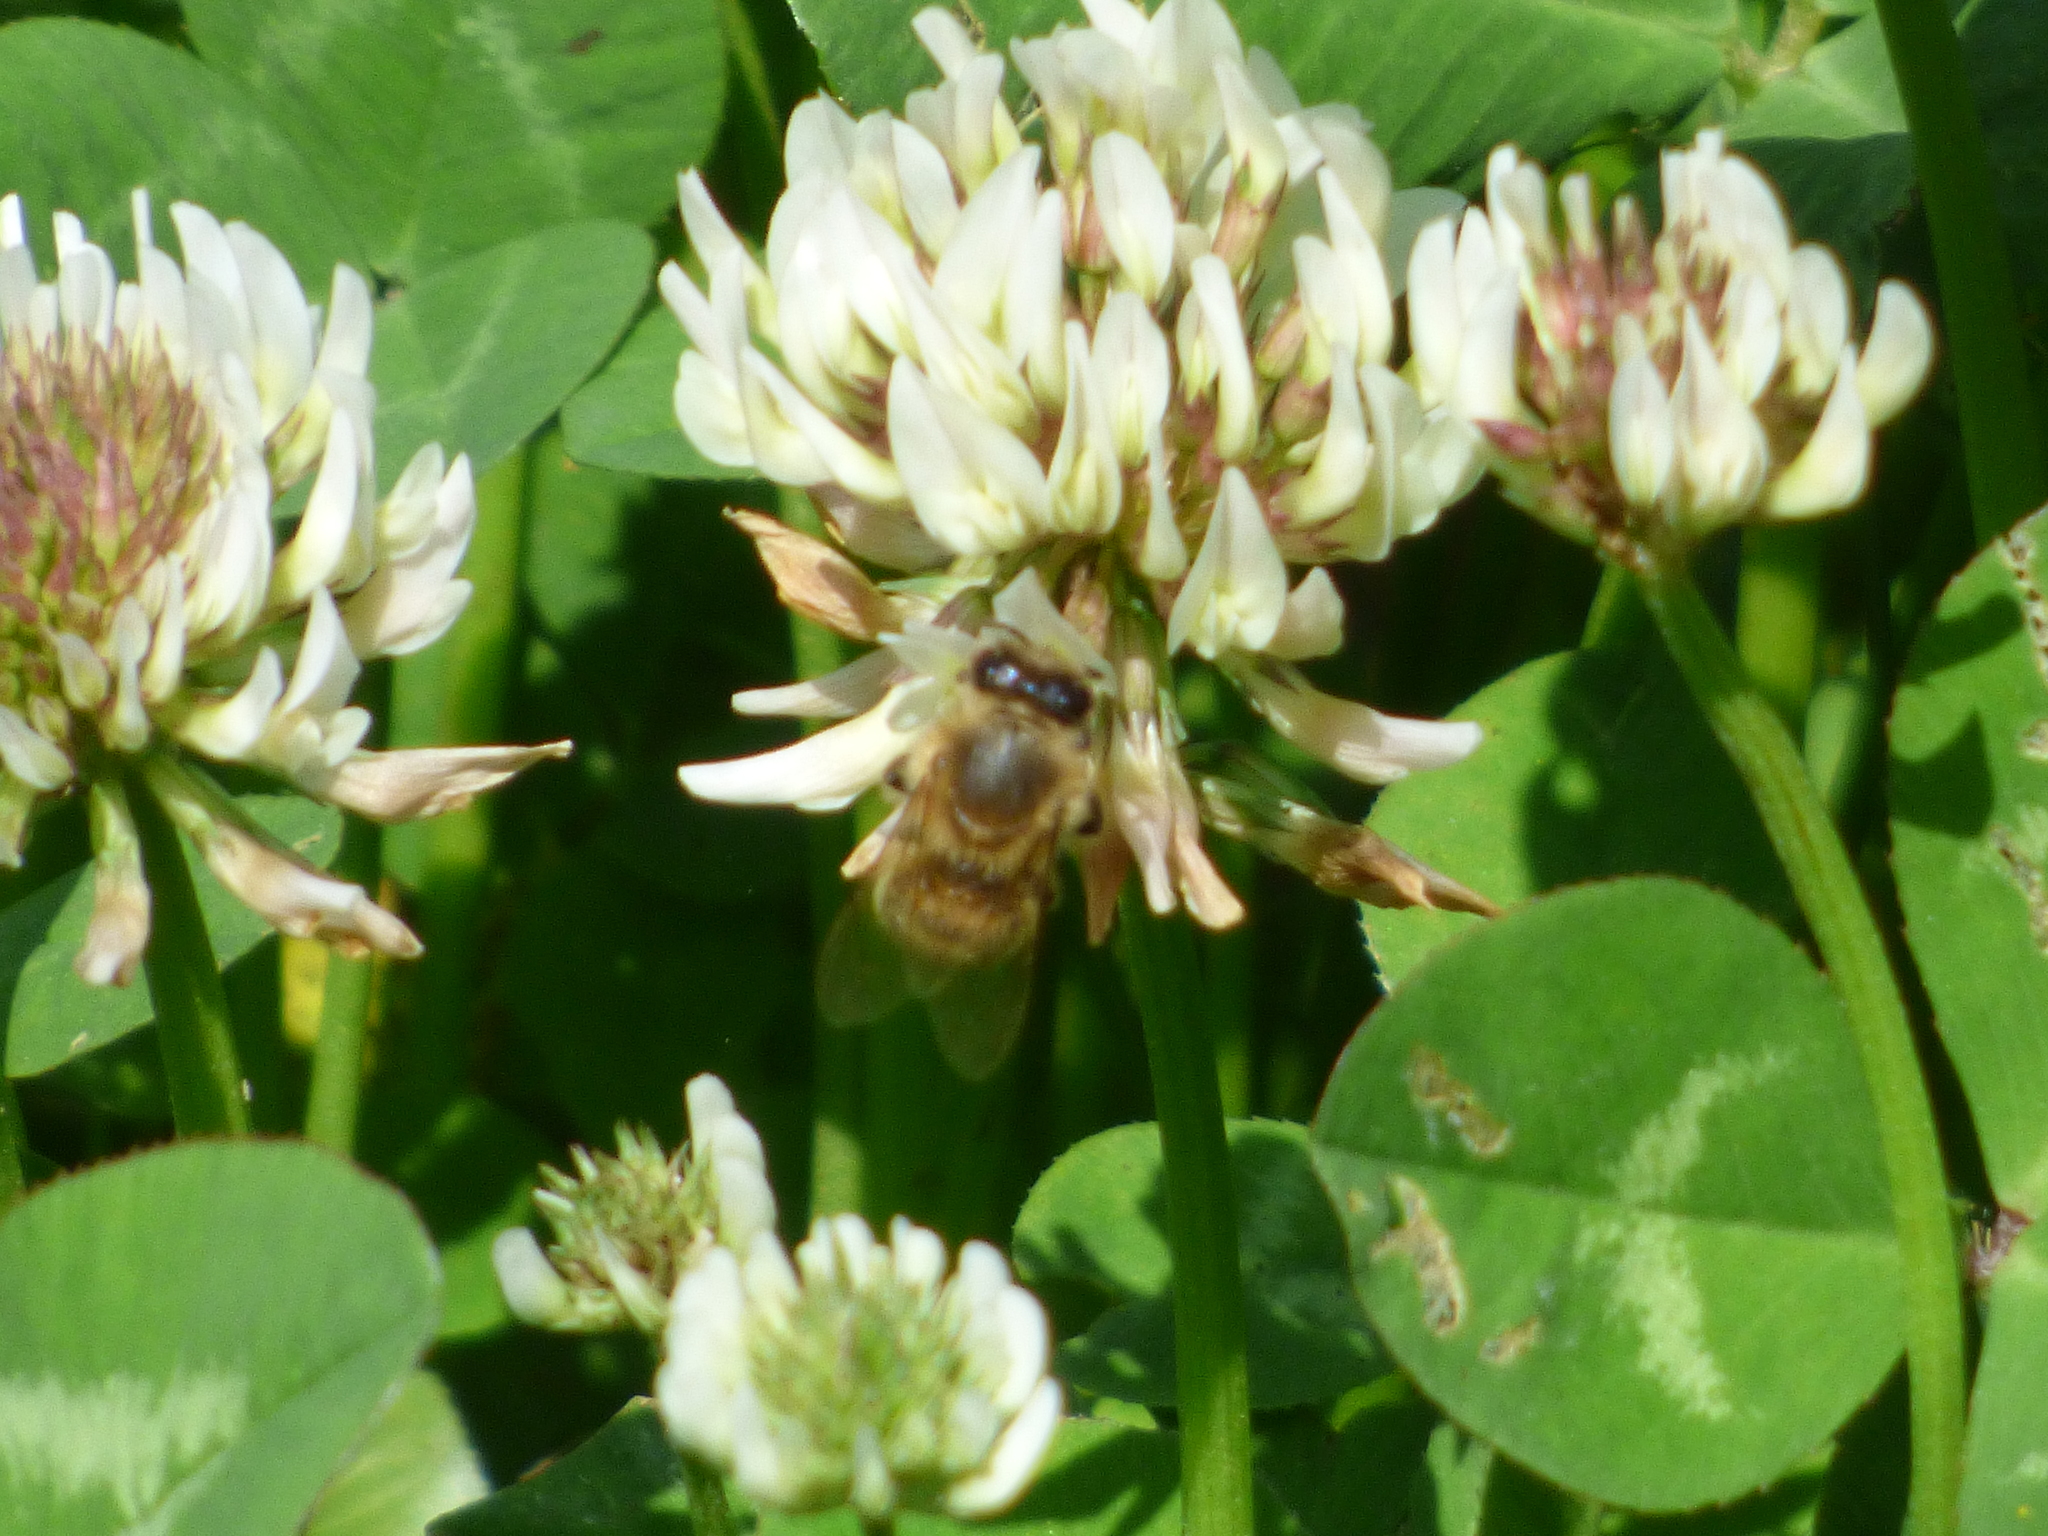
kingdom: Animalia
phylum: Arthropoda
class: Insecta
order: Hymenoptera
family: Apidae
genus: Apis
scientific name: Apis mellifera
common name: Honey bee
